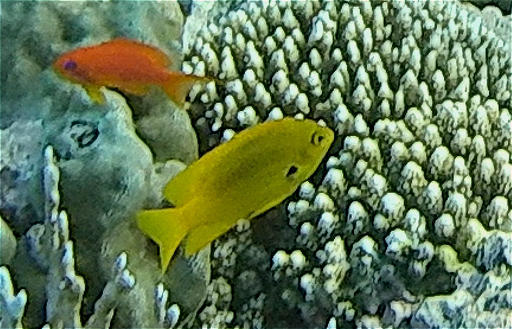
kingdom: Animalia
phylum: Chordata
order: Perciformes
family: Pomacentridae
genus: Pomacentrus
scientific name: Pomacentrus sulfureus
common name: Sulfur damsel
